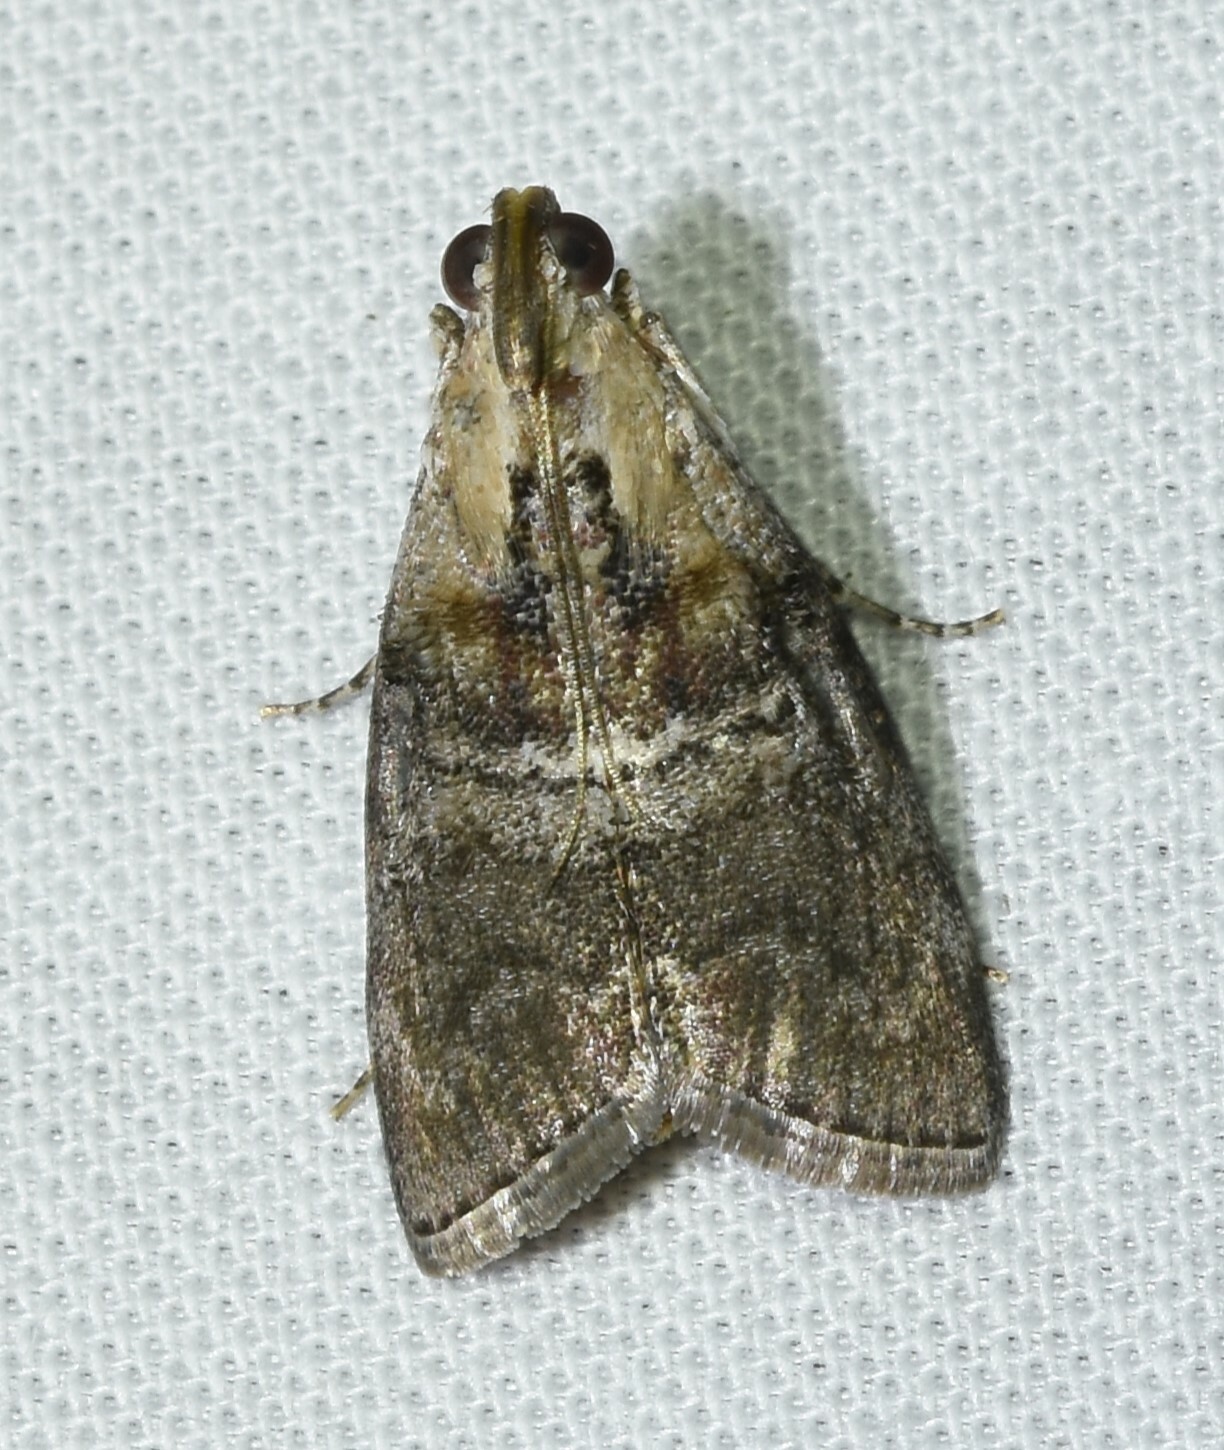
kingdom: Animalia
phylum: Arthropoda
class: Insecta
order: Lepidoptera
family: Pyralidae
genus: Pococera
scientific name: Pococera expandens
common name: Striped oak webworm moth
